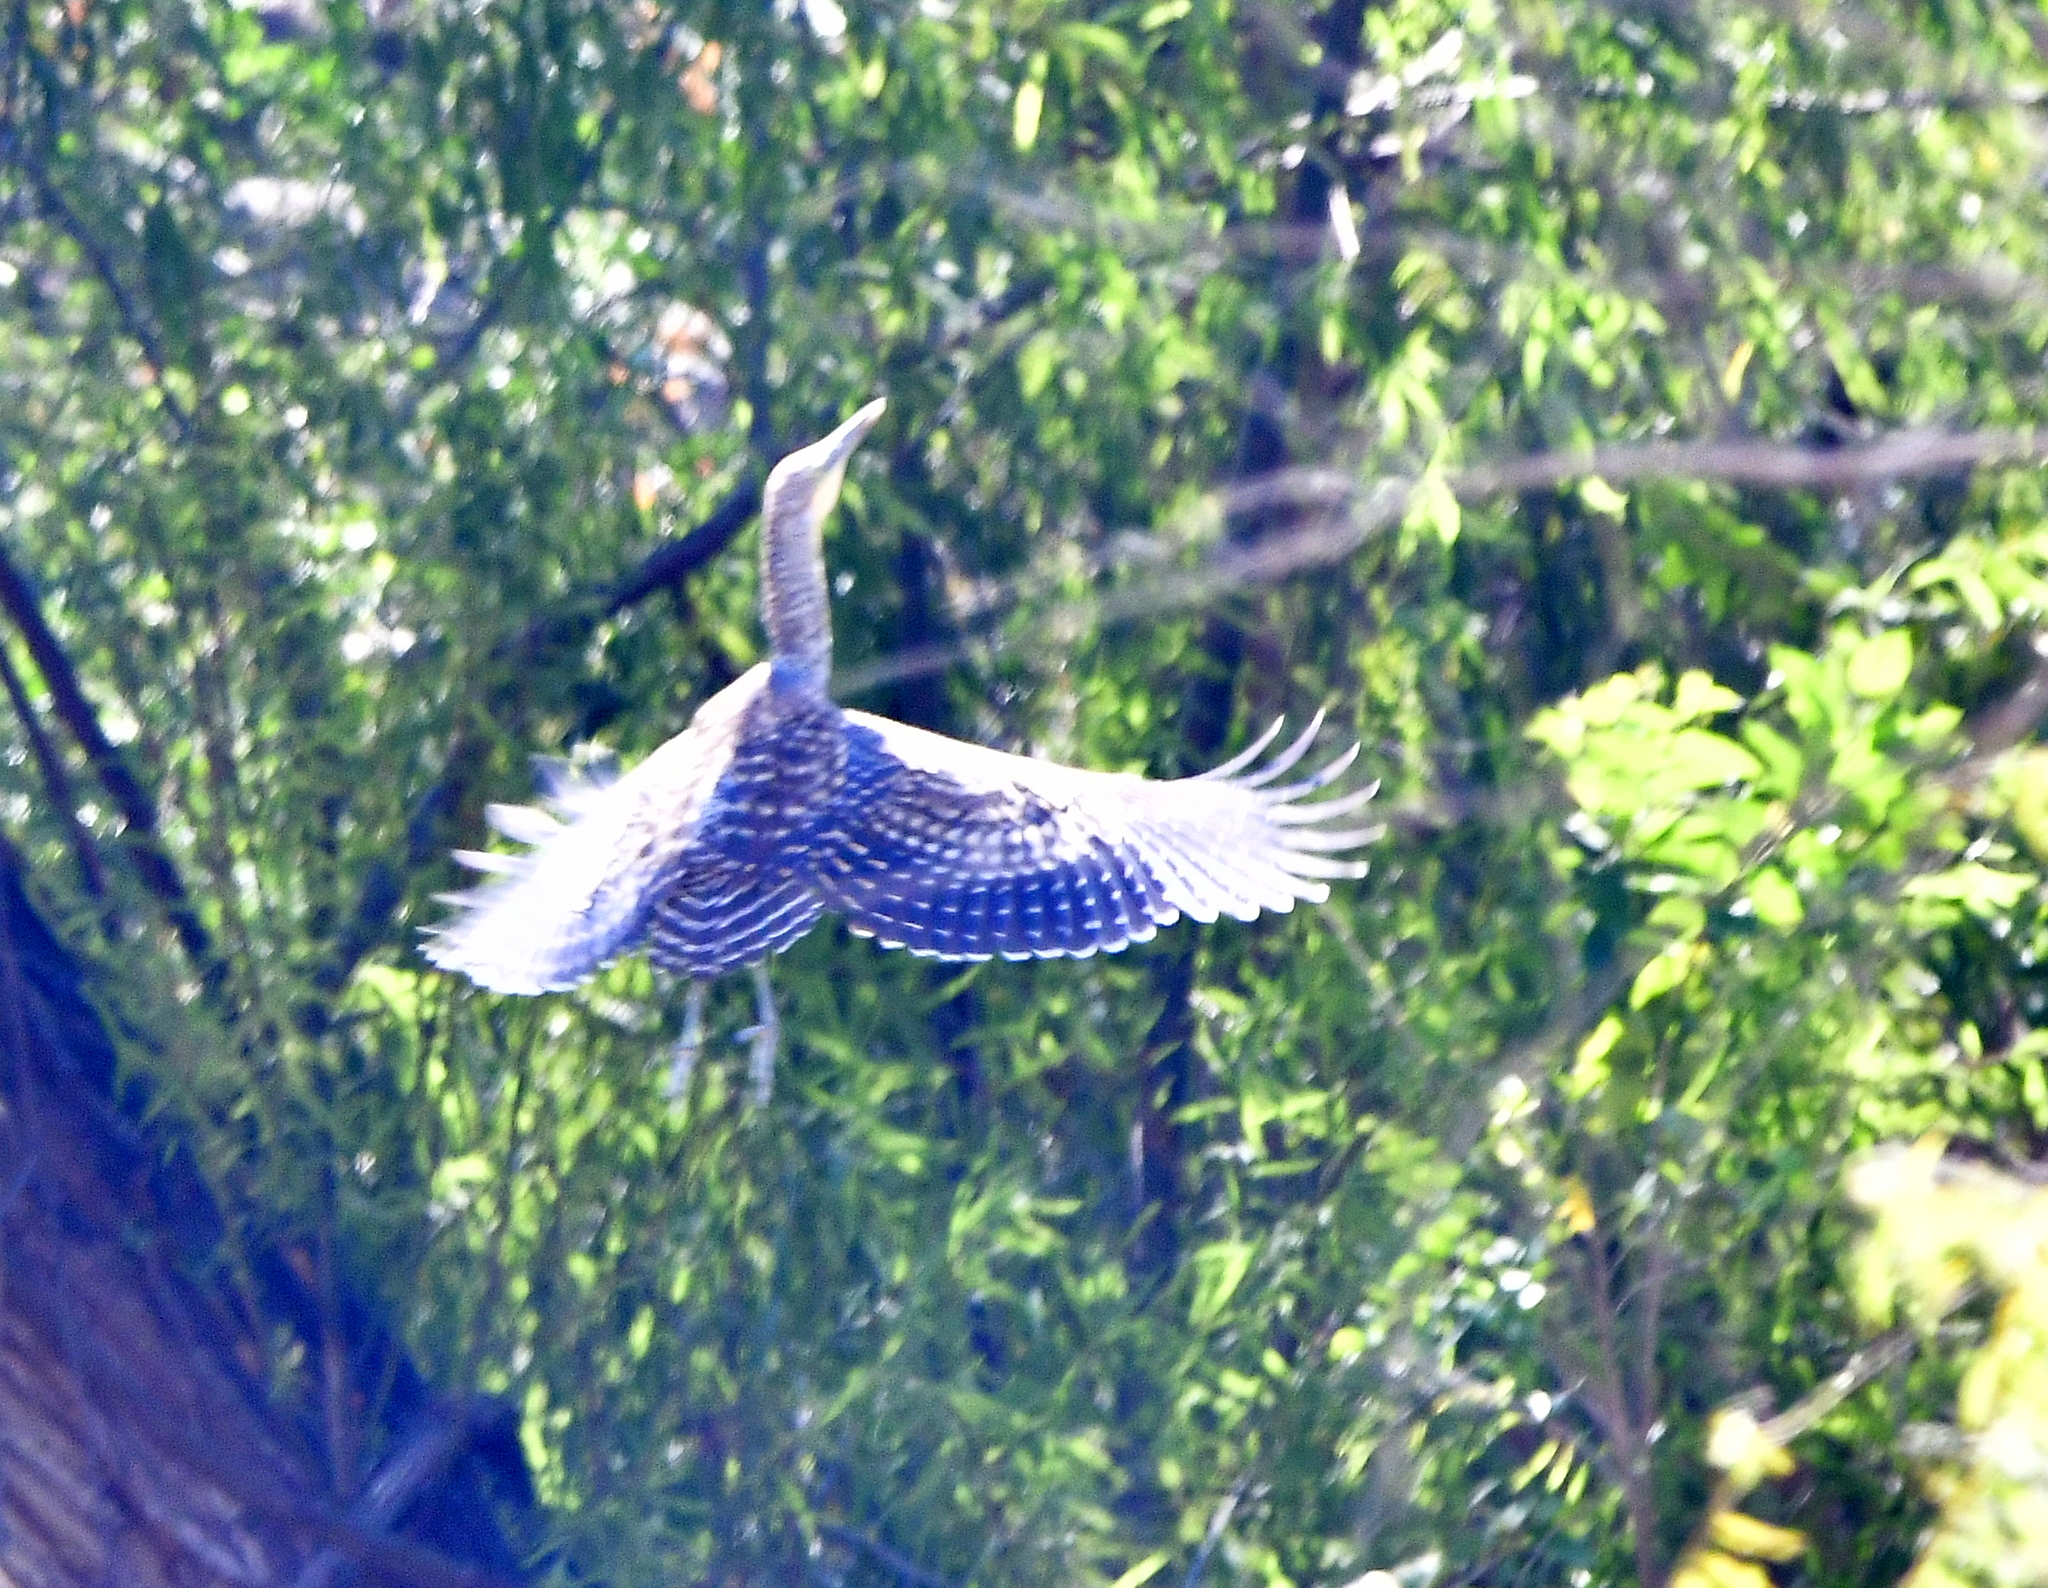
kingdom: Animalia
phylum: Chordata
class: Aves
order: Pelecaniformes
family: Ardeidae
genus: Tigrisoma
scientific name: Tigrisoma mexicanum
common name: Bare-throated tiger-heron
